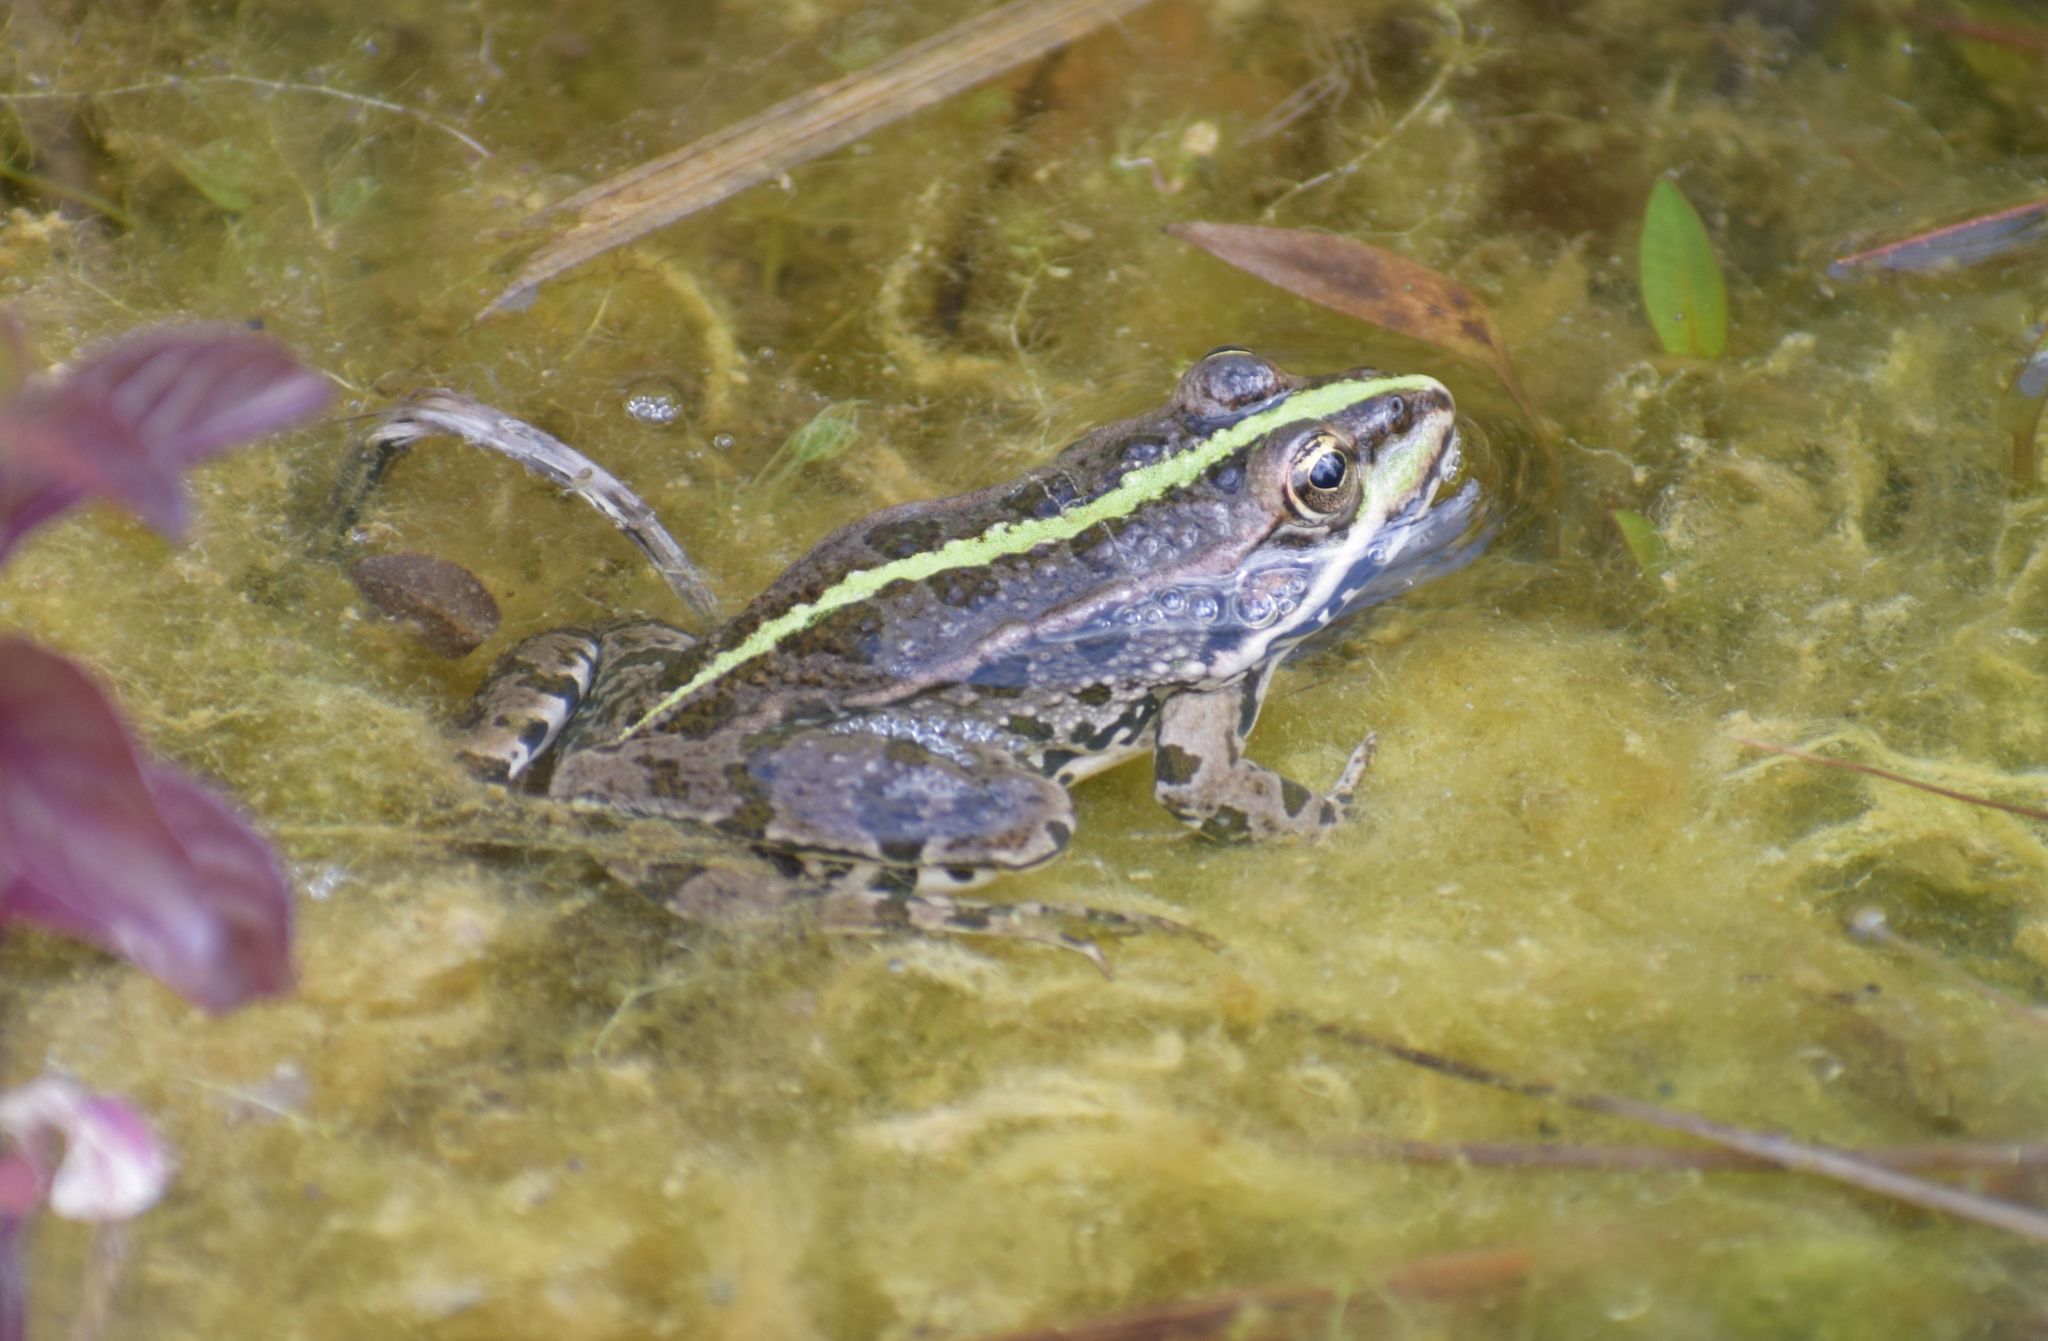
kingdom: Animalia
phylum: Chordata
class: Amphibia
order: Anura
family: Ranidae
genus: Pelophylax
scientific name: Pelophylax
